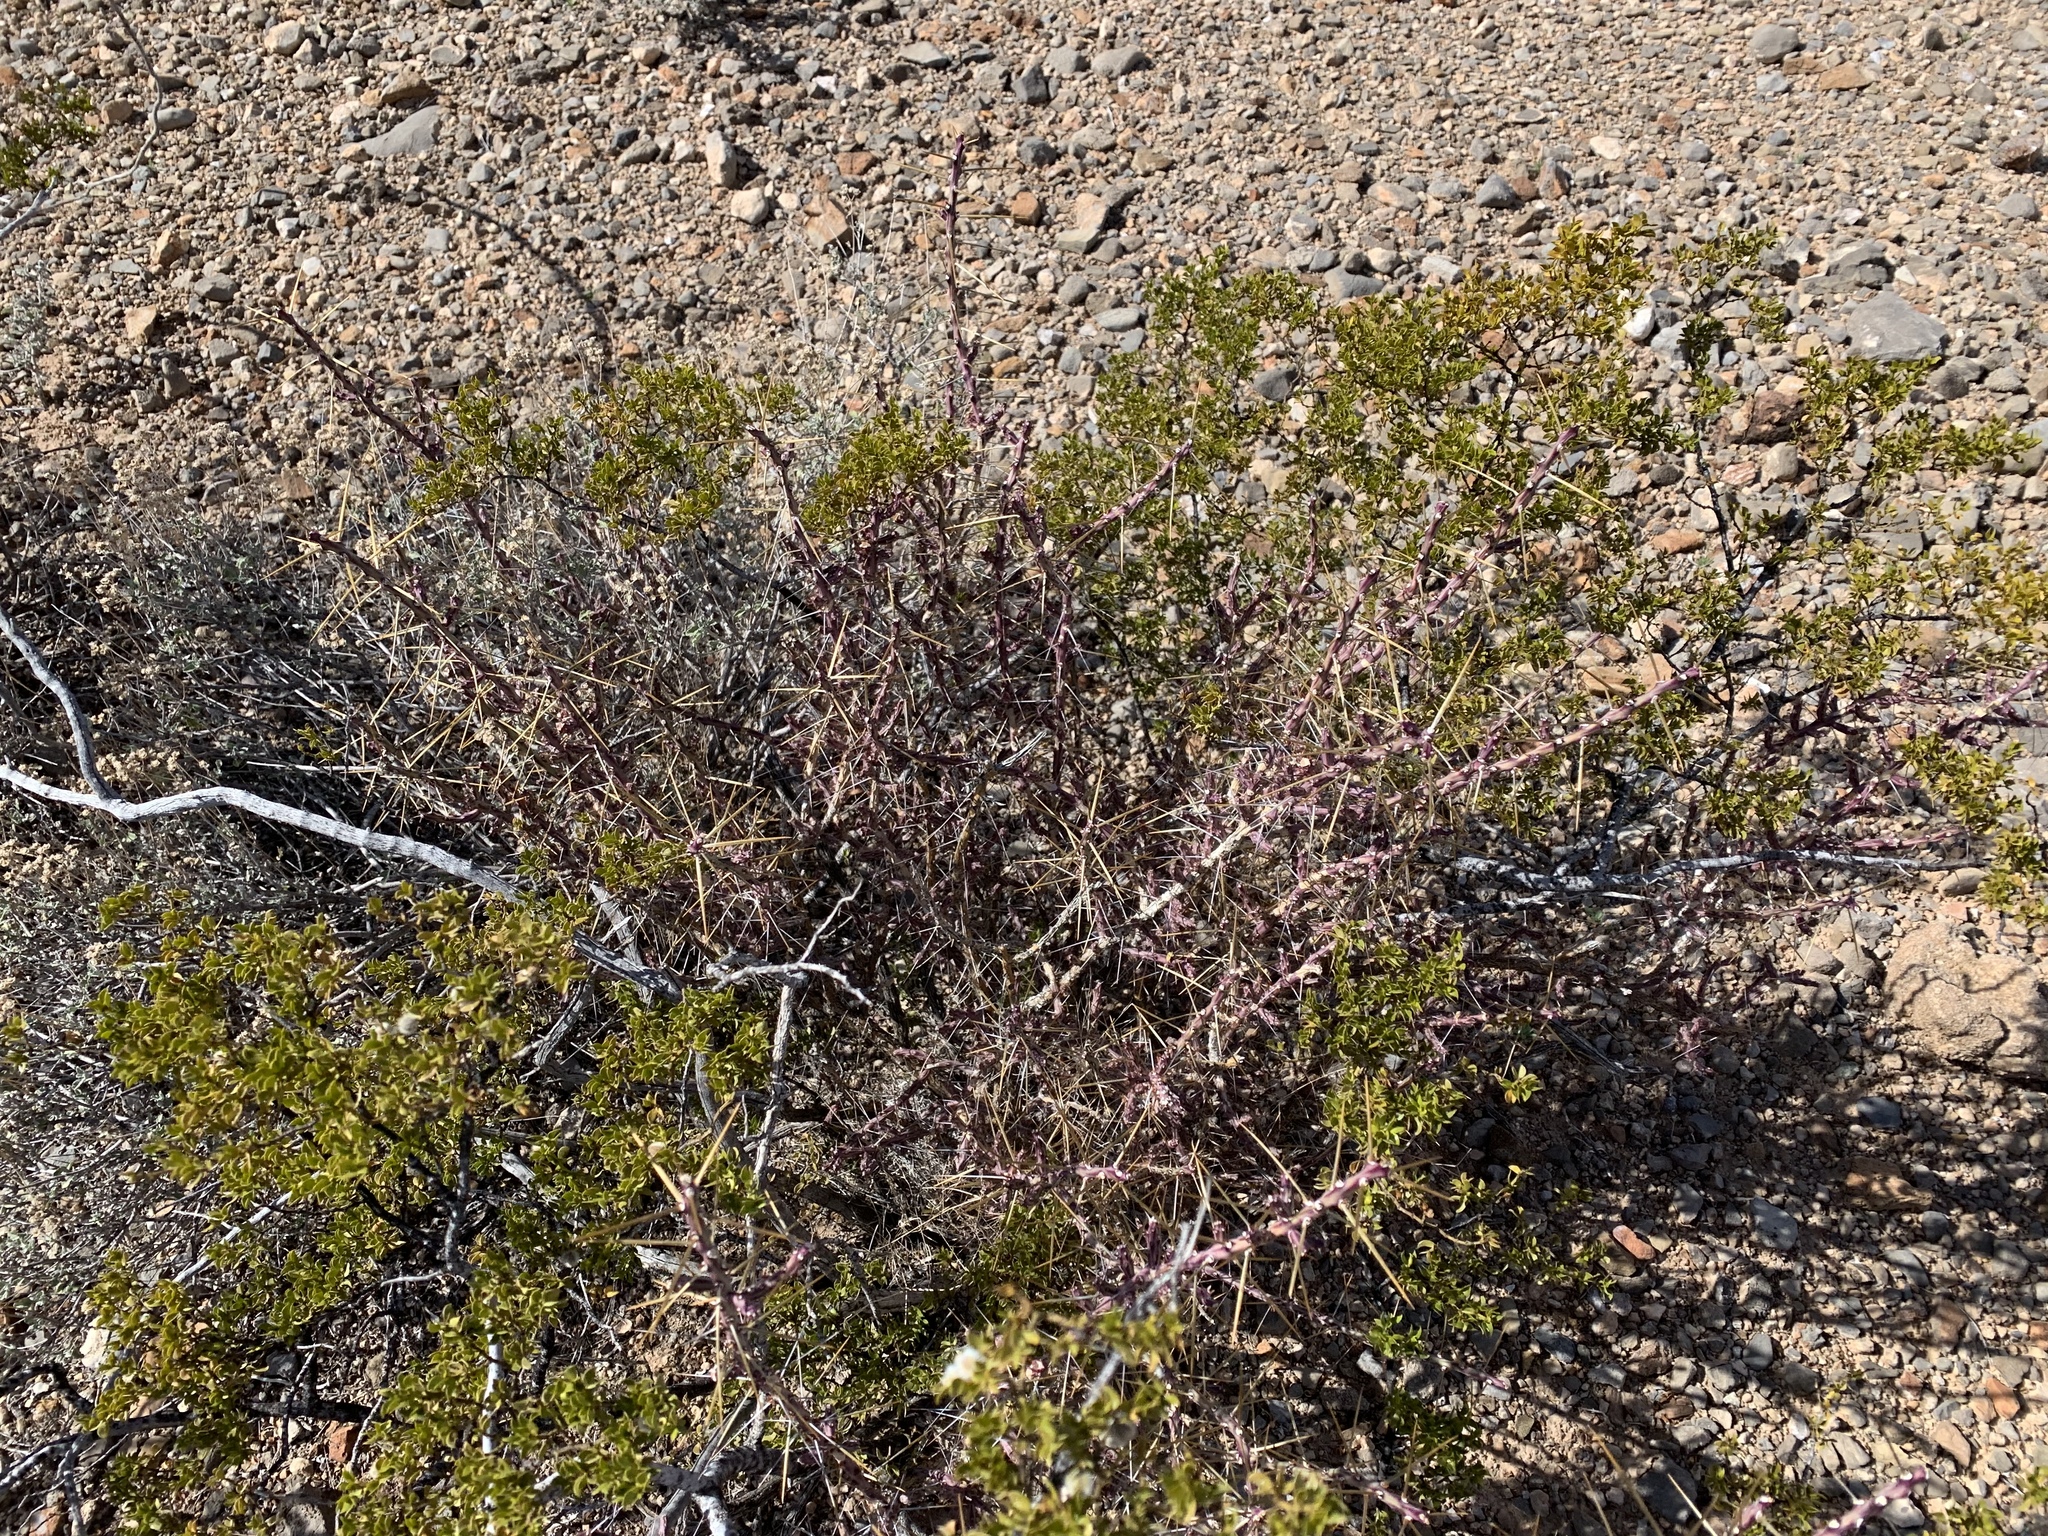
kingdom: Plantae
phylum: Tracheophyta
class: Magnoliopsida
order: Caryophyllales
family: Cactaceae
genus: Cylindropuntia
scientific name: Cylindropuntia leptocaulis
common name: Christmas cactus
